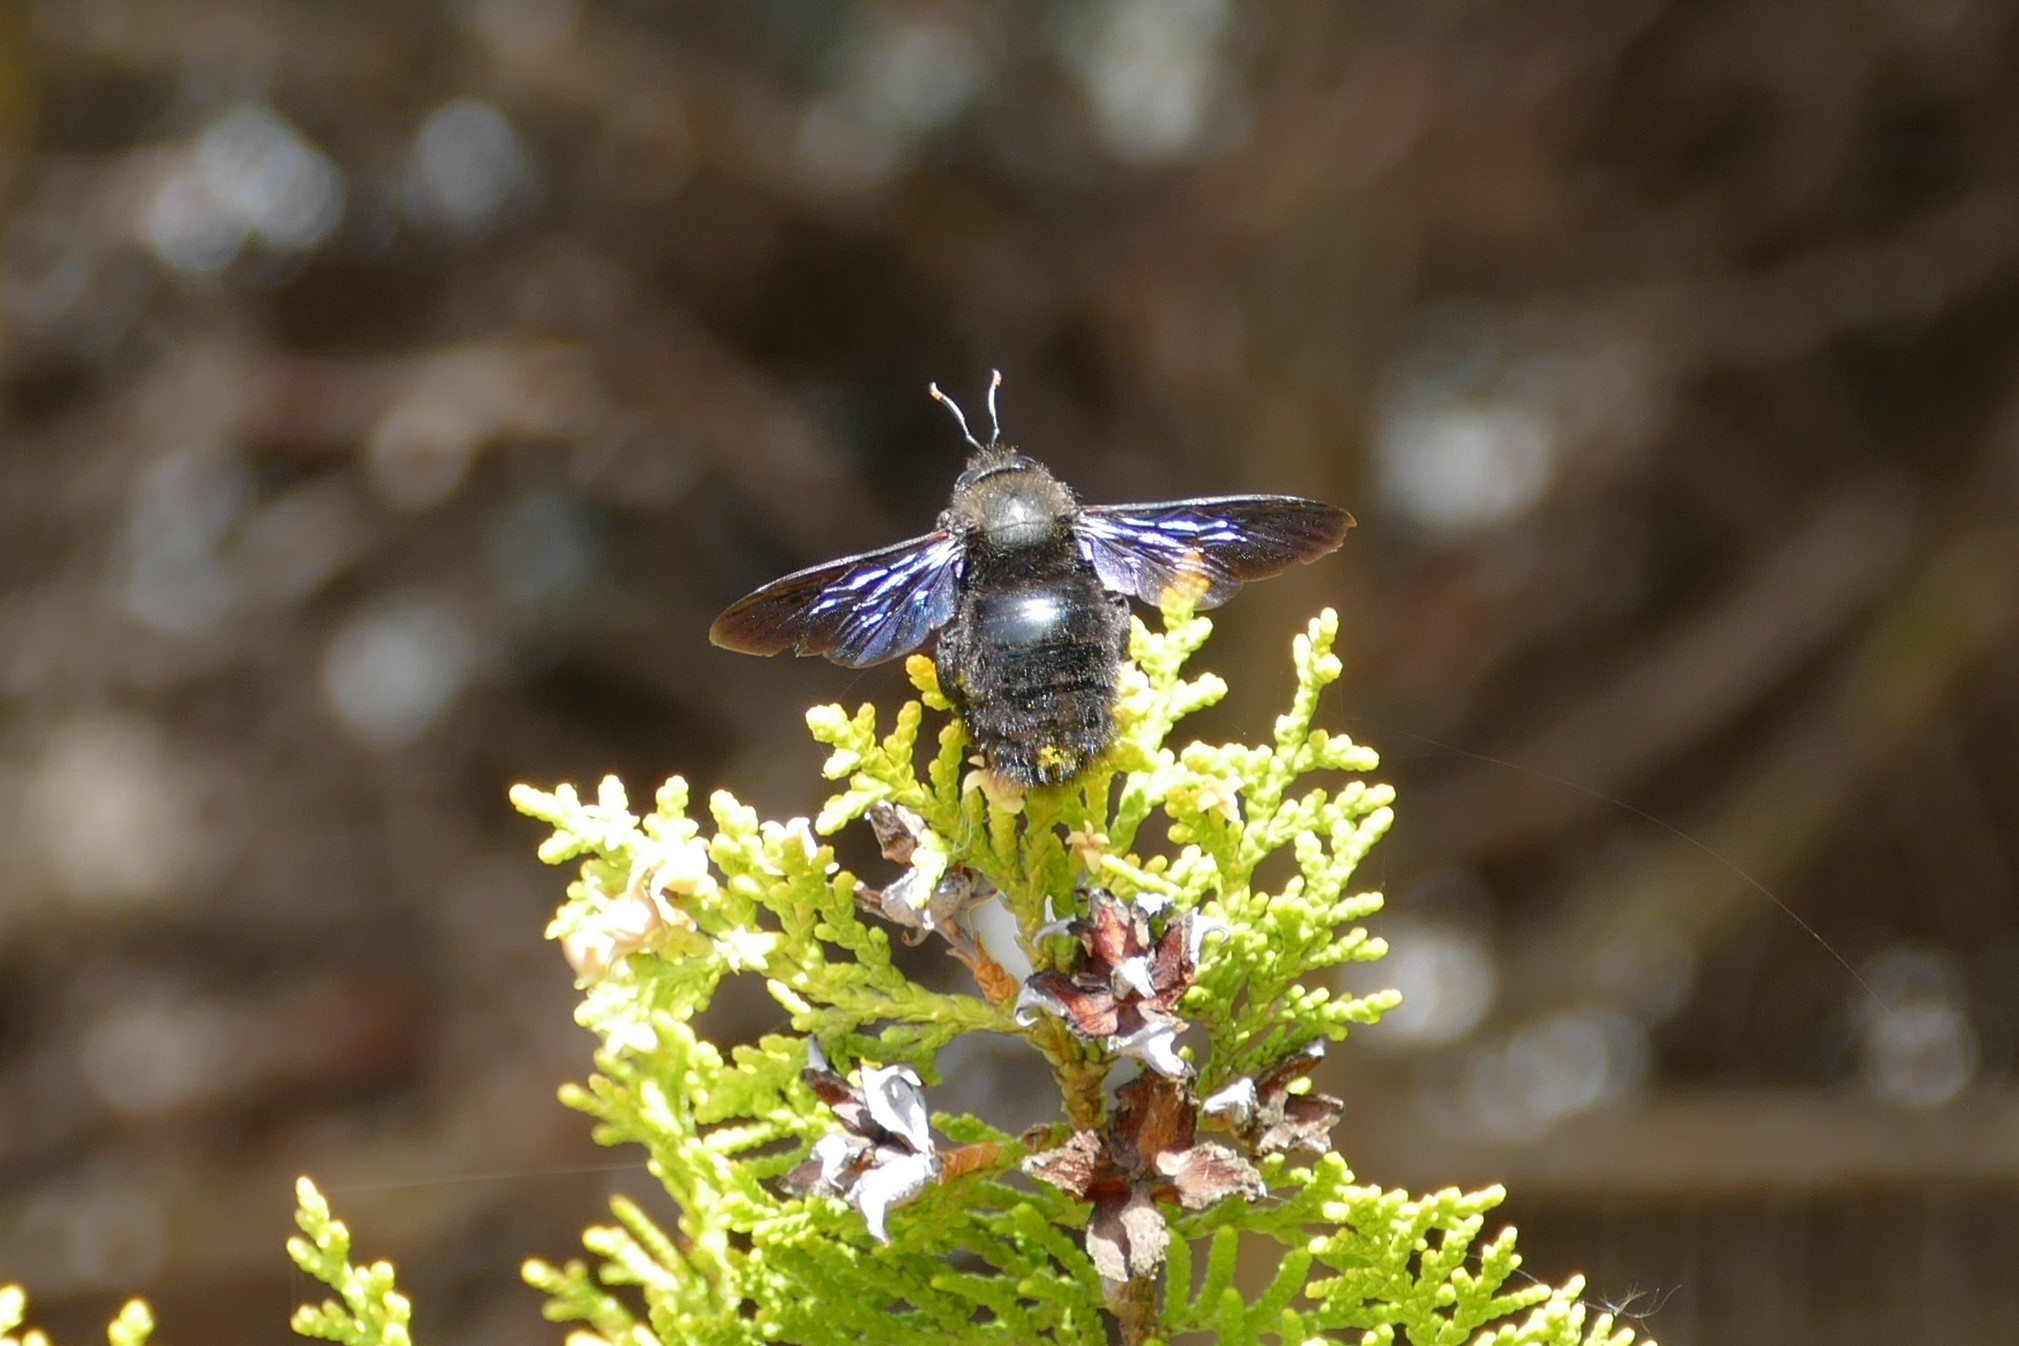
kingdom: Animalia
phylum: Arthropoda
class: Insecta
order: Hymenoptera
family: Apidae
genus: Xylocopa
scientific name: Xylocopa violacea
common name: Violet carpenter bee
